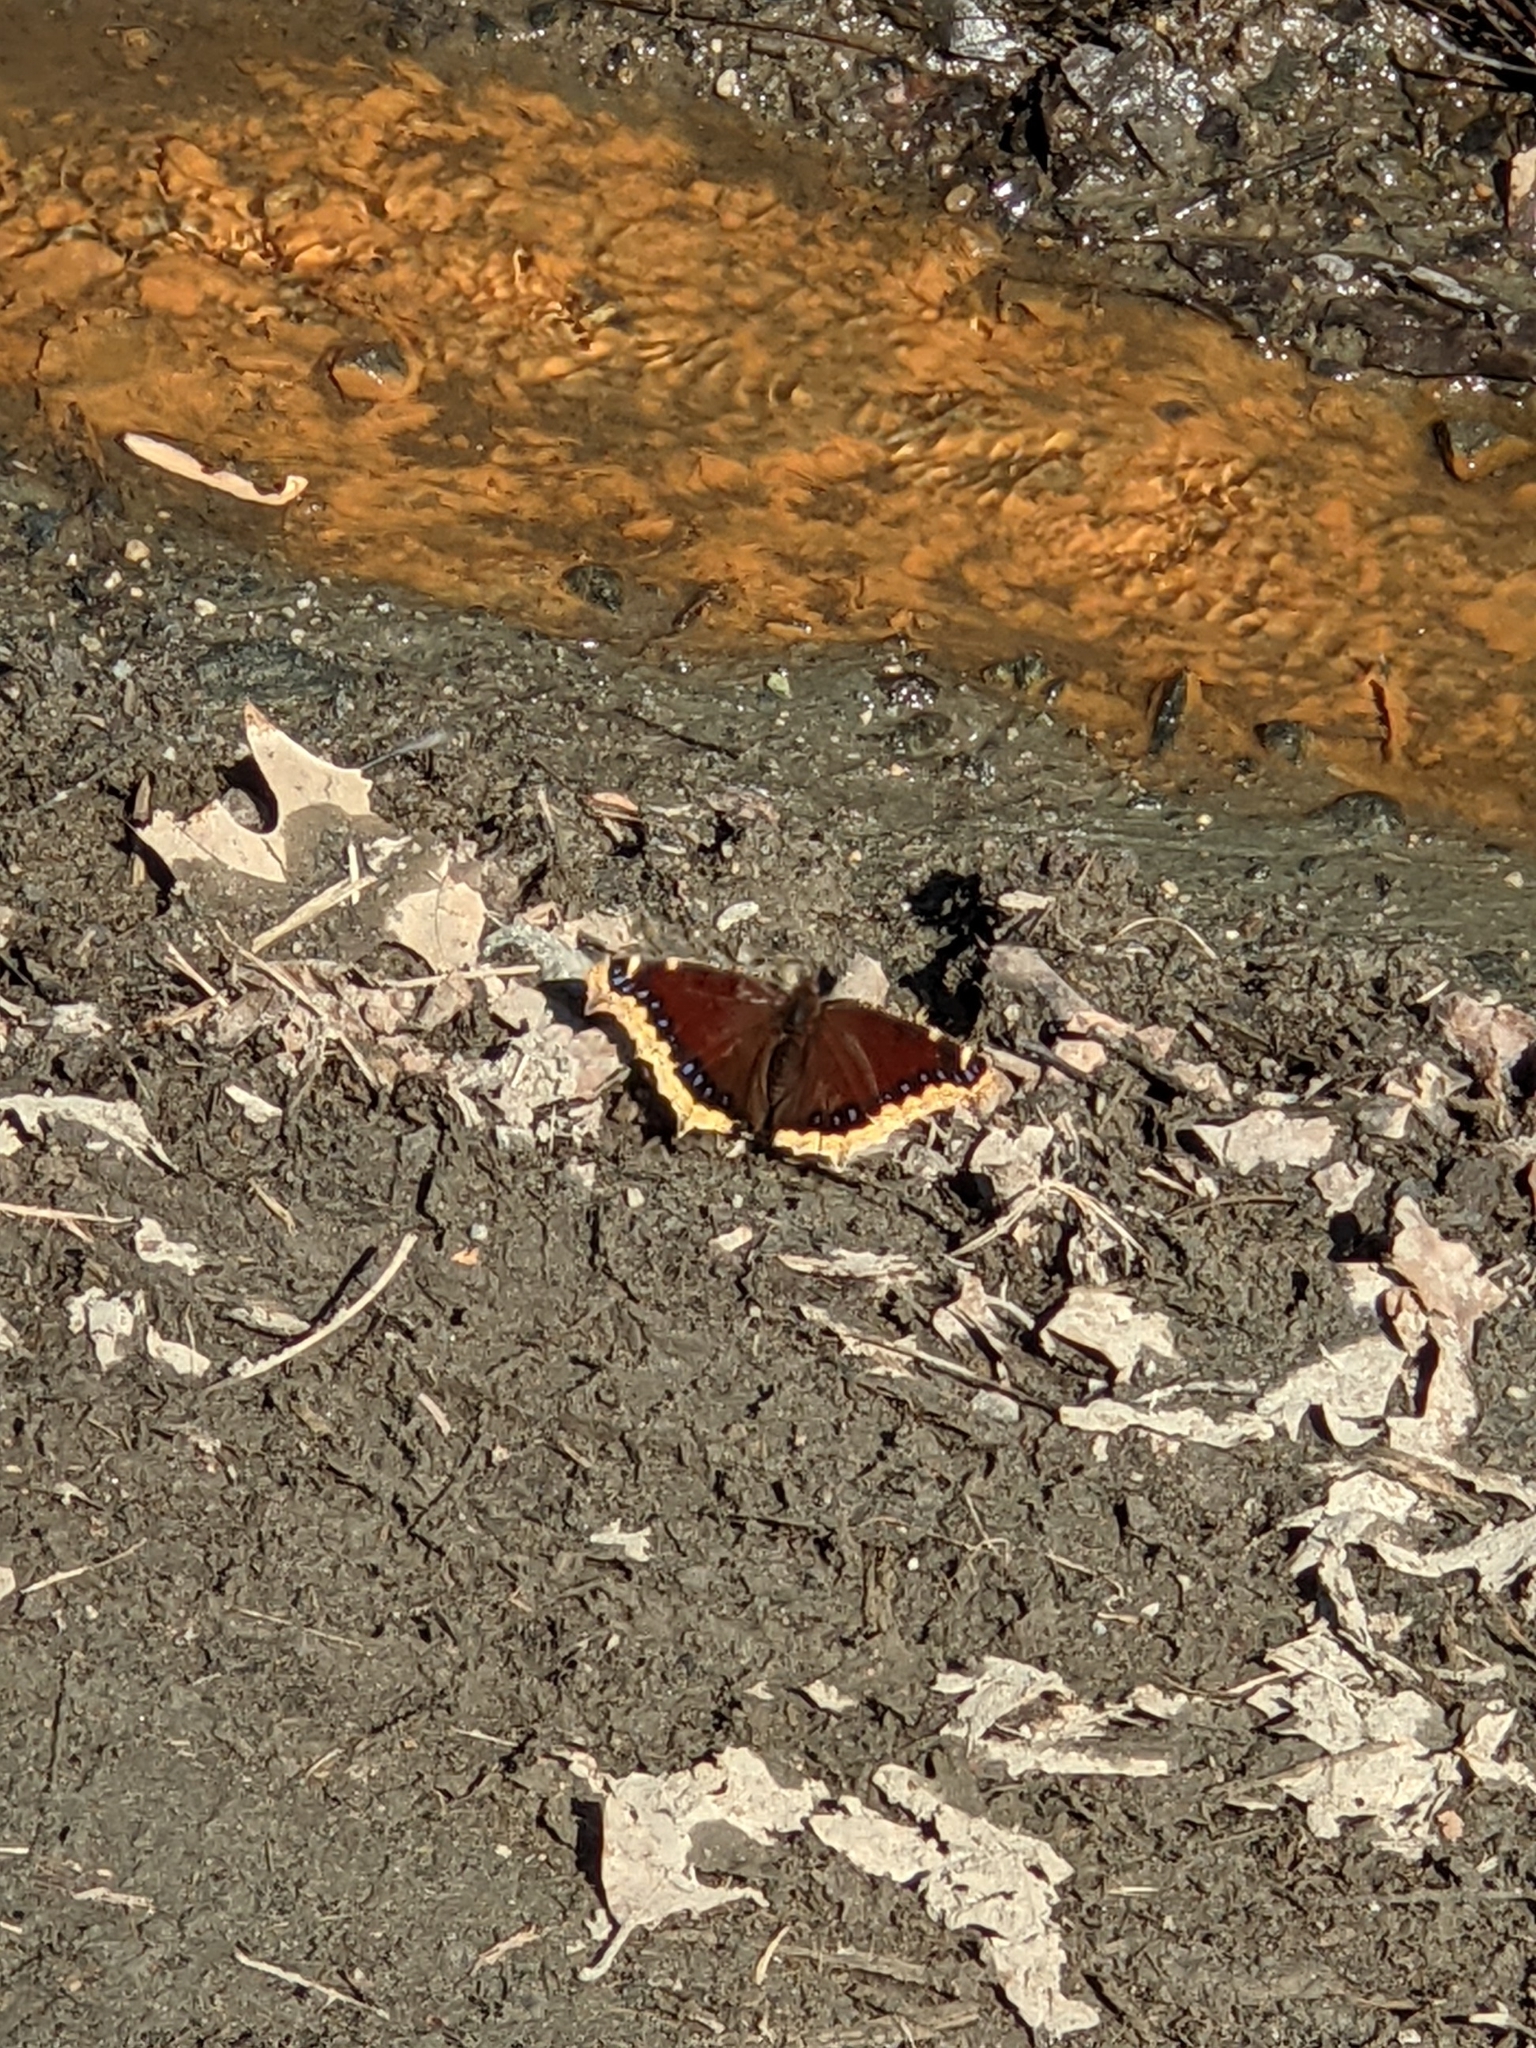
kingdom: Animalia
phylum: Arthropoda
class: Insecta
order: Lepidoptera
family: Nymphalidae
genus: Nymphalis
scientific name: Nymphalis antiopa
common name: Camberwell beauty
